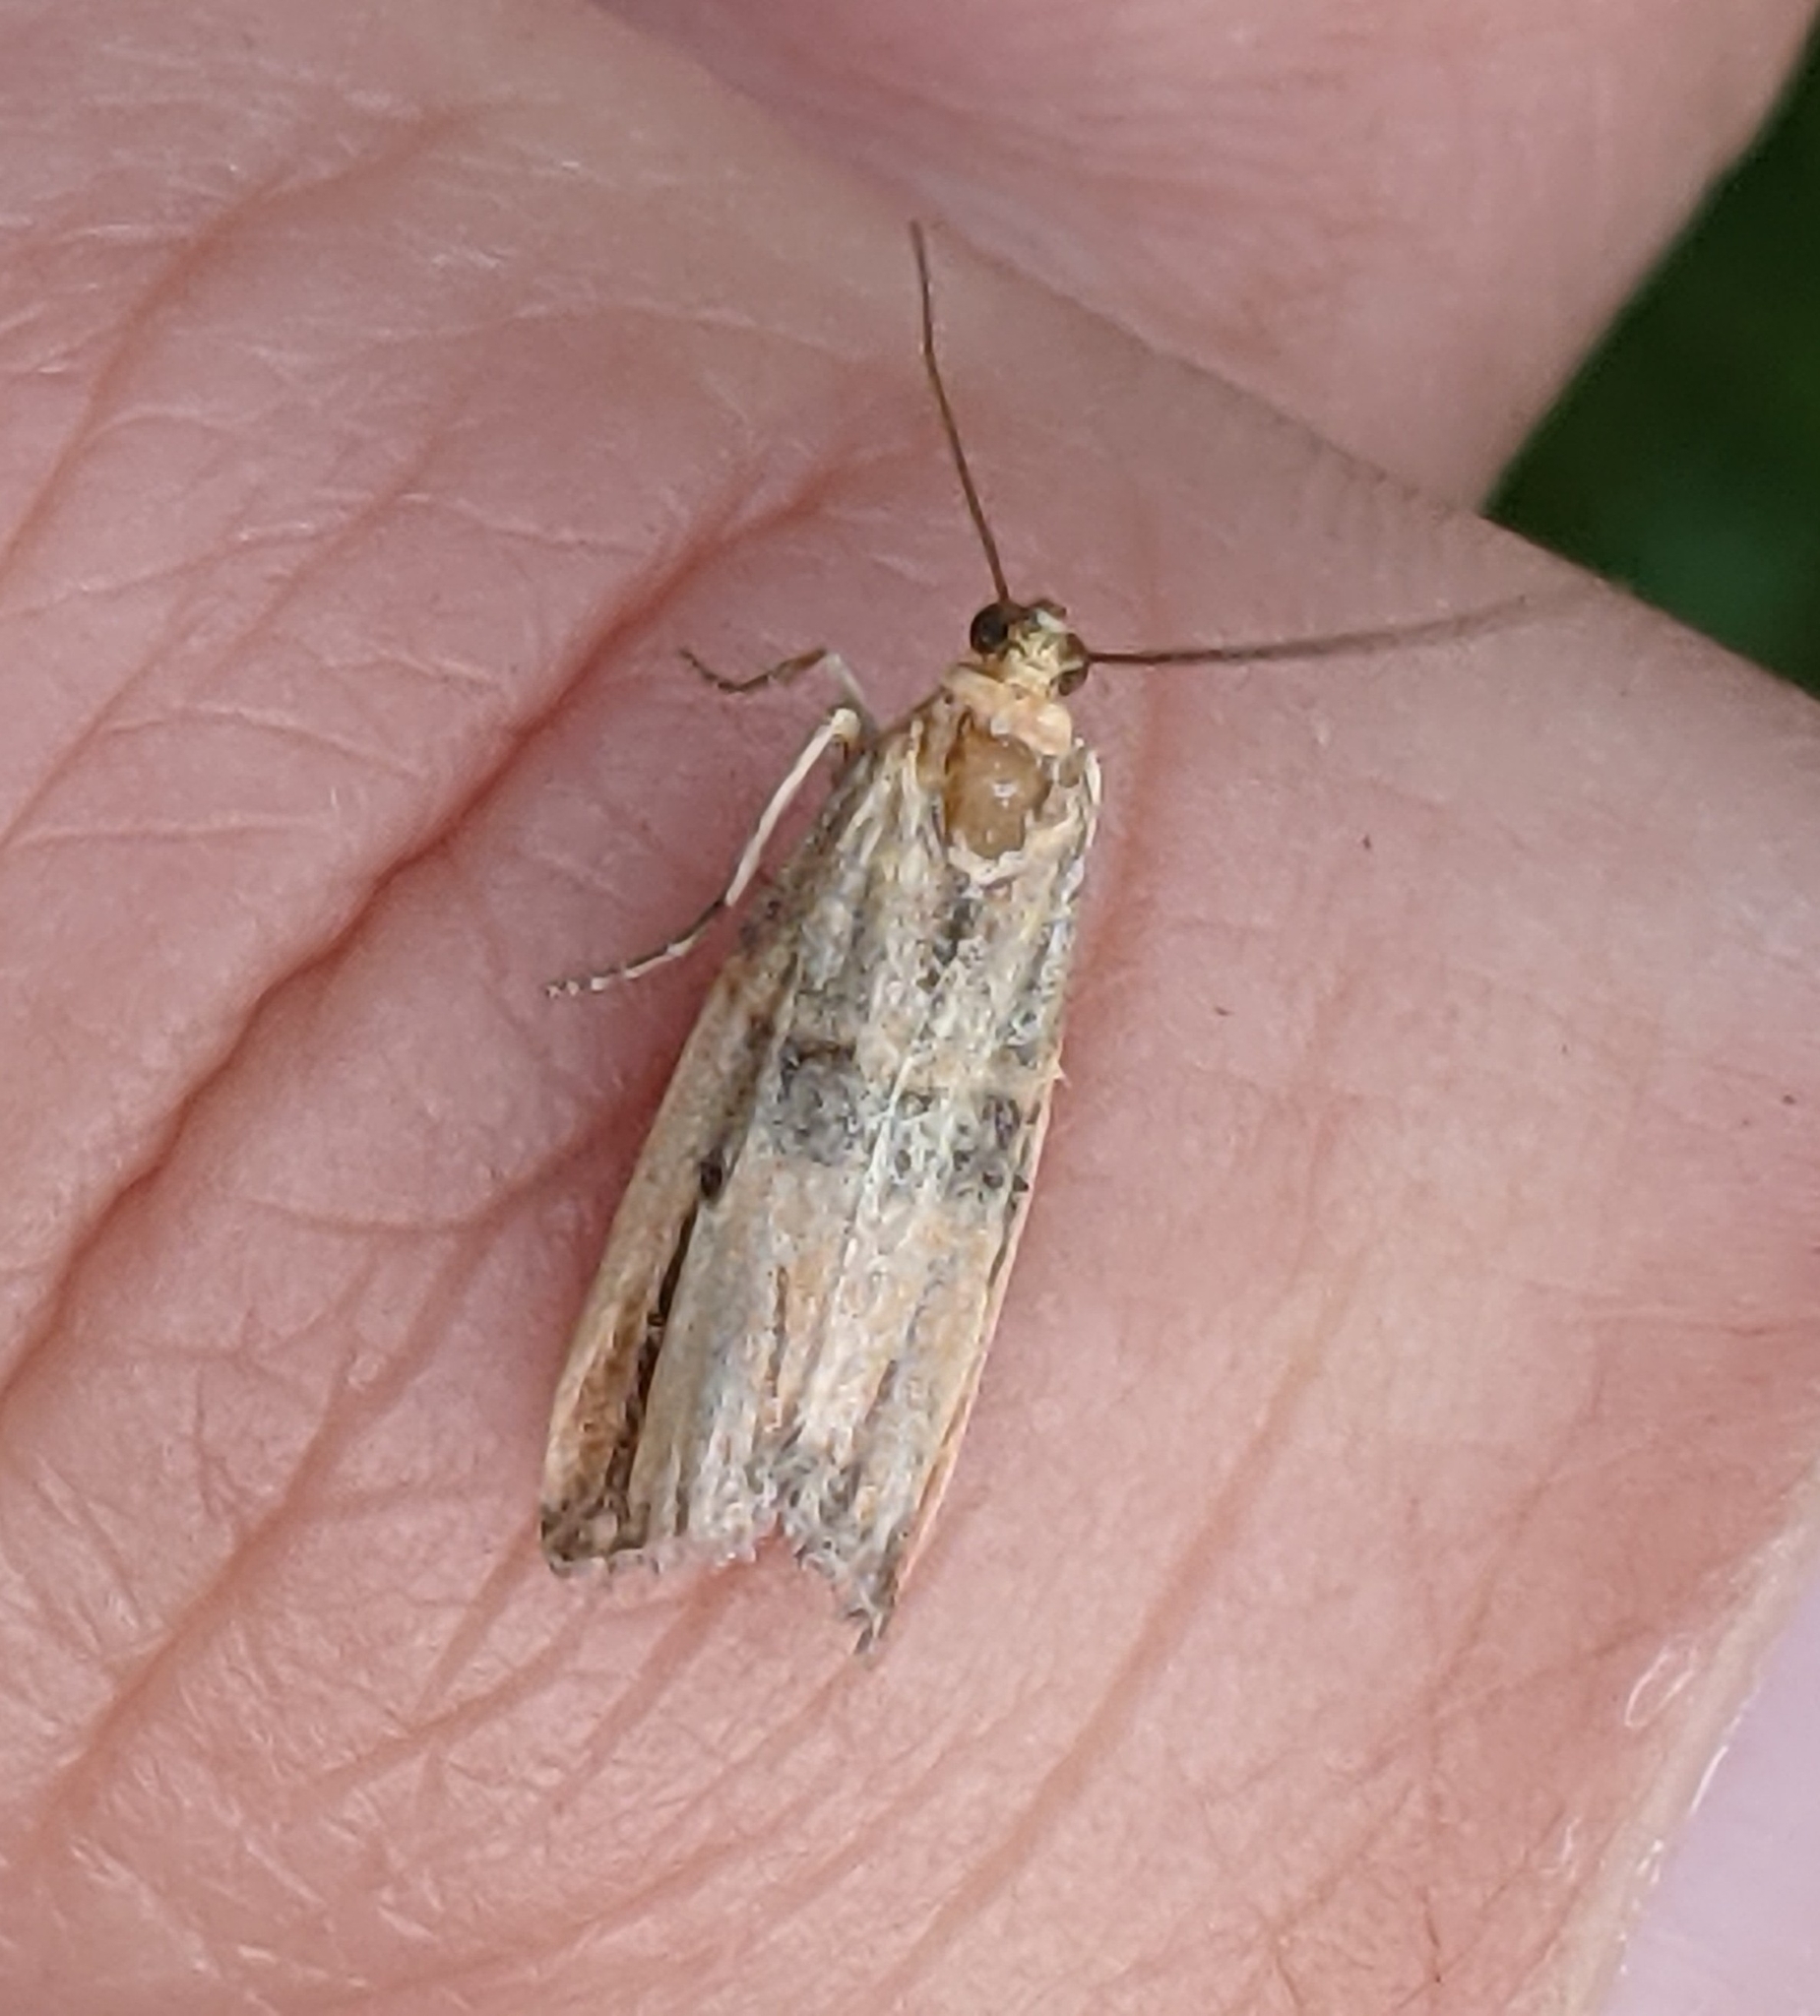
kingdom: Animalia
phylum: Arthropoda
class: Insecta
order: Lepidoptera
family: Pyralidae
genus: Dasypyga
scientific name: Dasypyga alternosquamella
